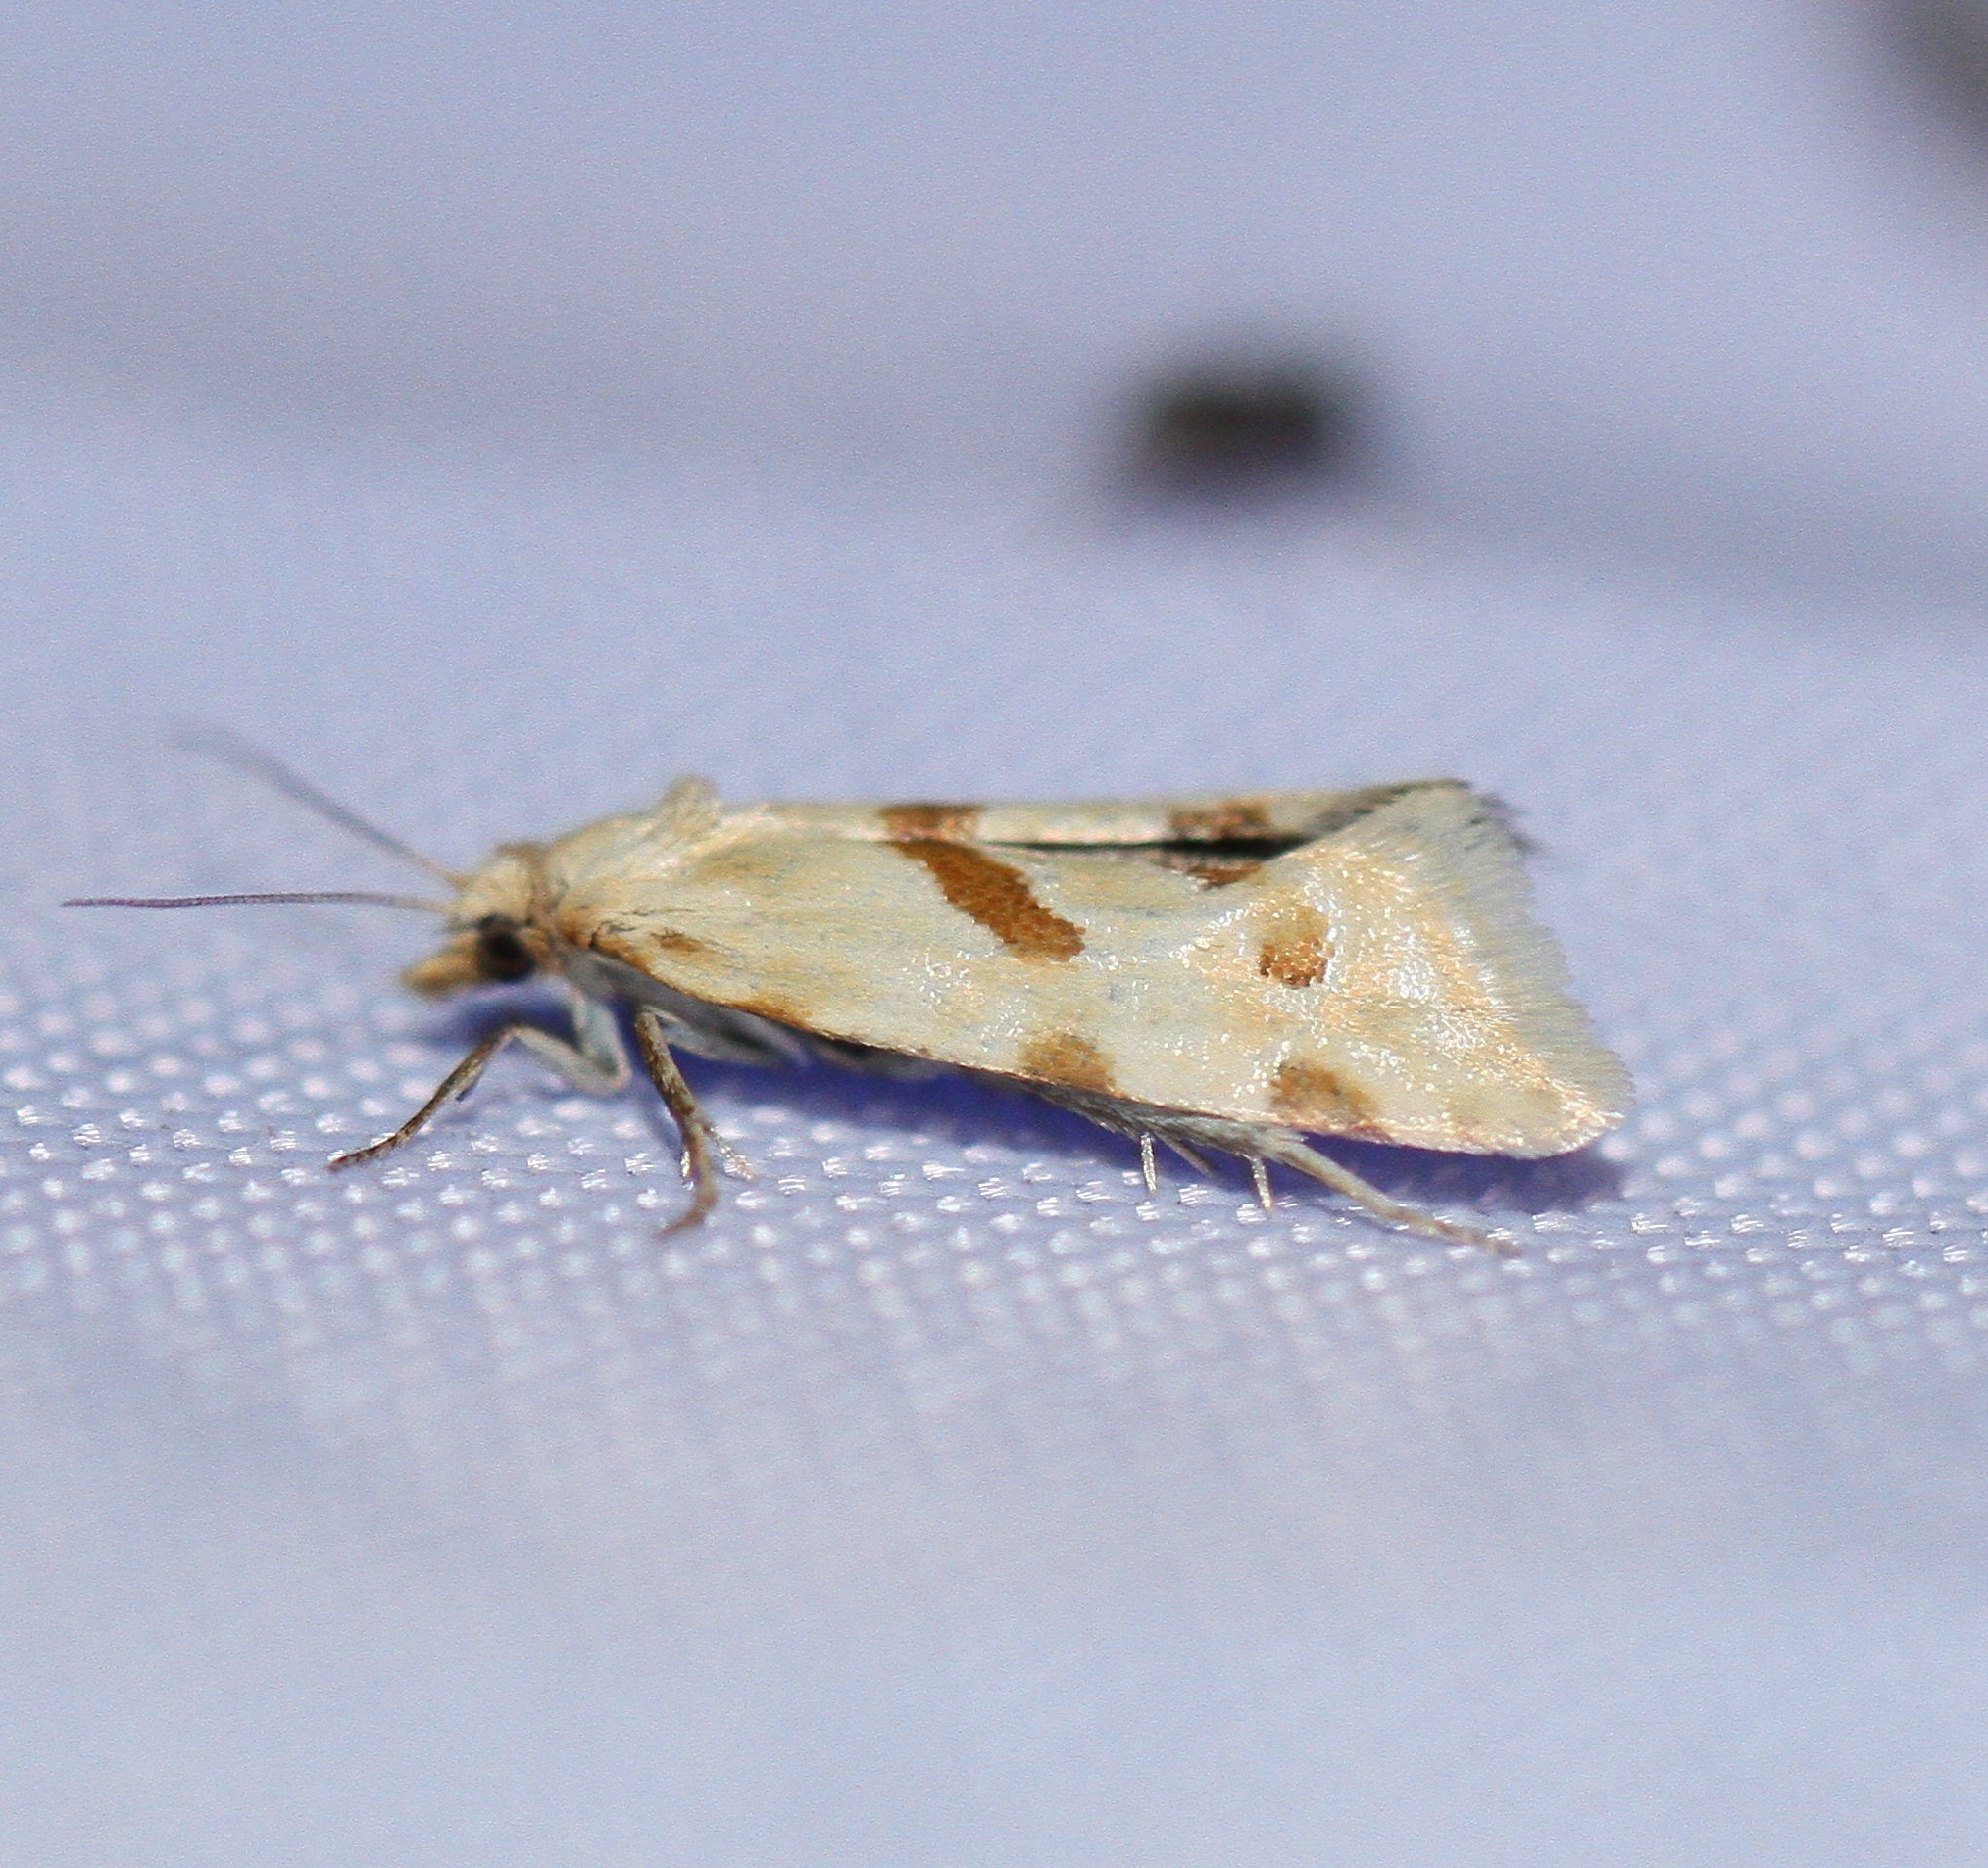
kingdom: Animalia
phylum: Arthropoda
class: Insecta
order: Lepidoptera
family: Tortricidae
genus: Aethes
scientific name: Aethes smeathmanniana
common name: Yarrow conch
